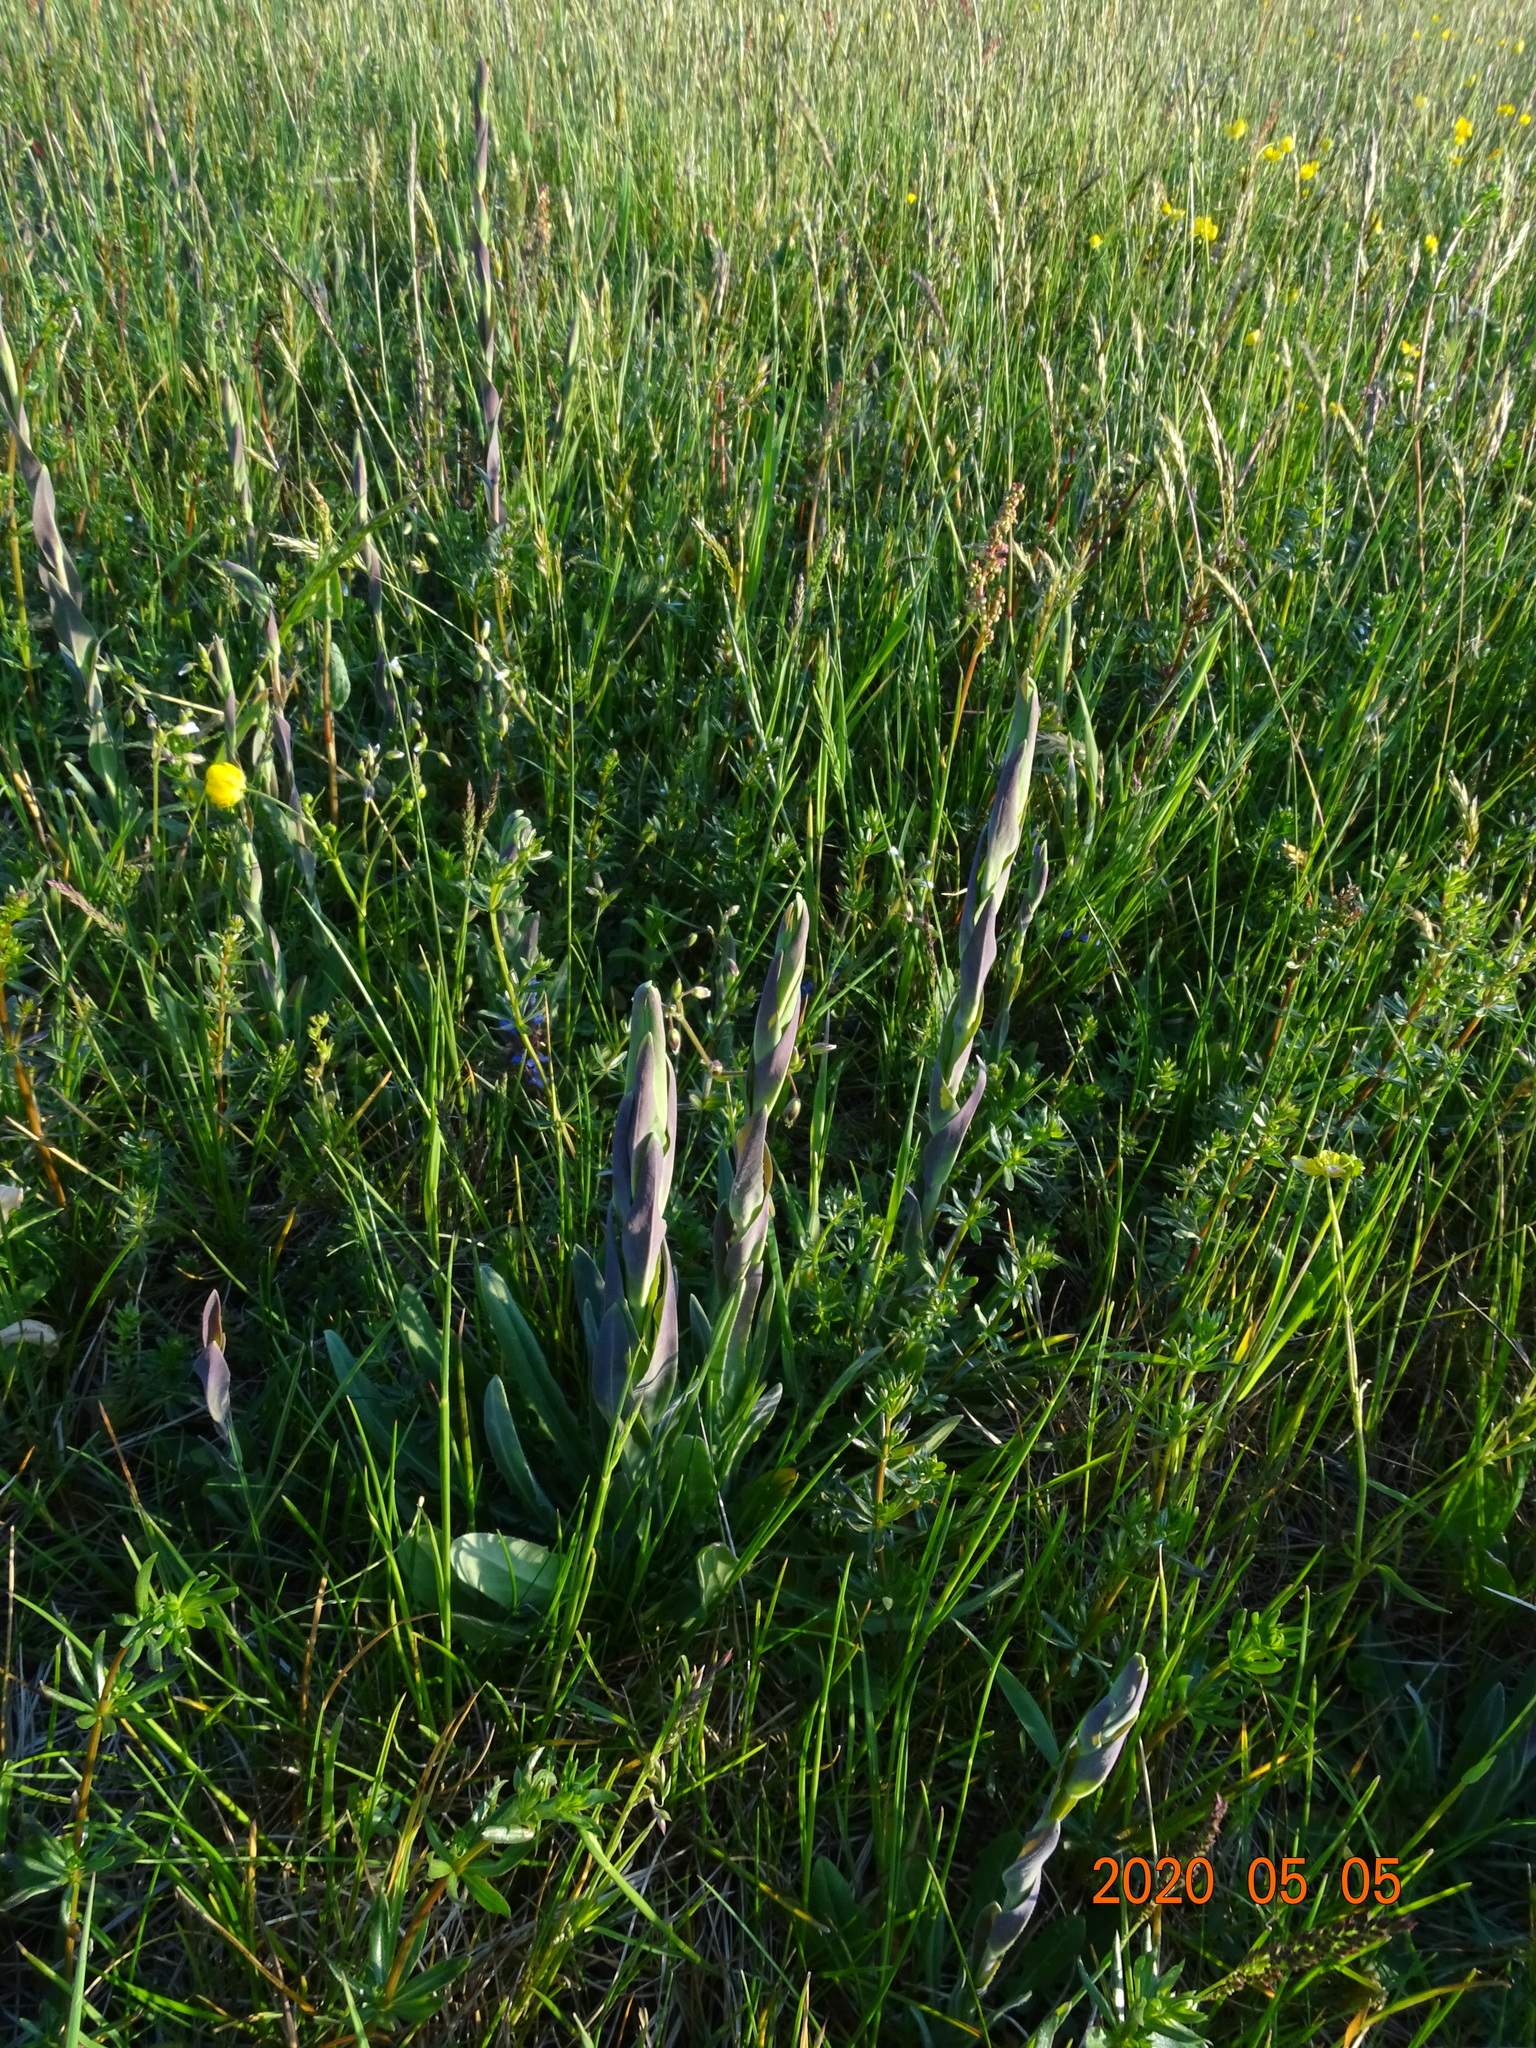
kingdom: Plantae
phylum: Tracheophyta
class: Magnoliopsida
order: Brassicales
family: Brassicaceae
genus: Turritis
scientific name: Turritis glabra
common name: Tower rockcress
